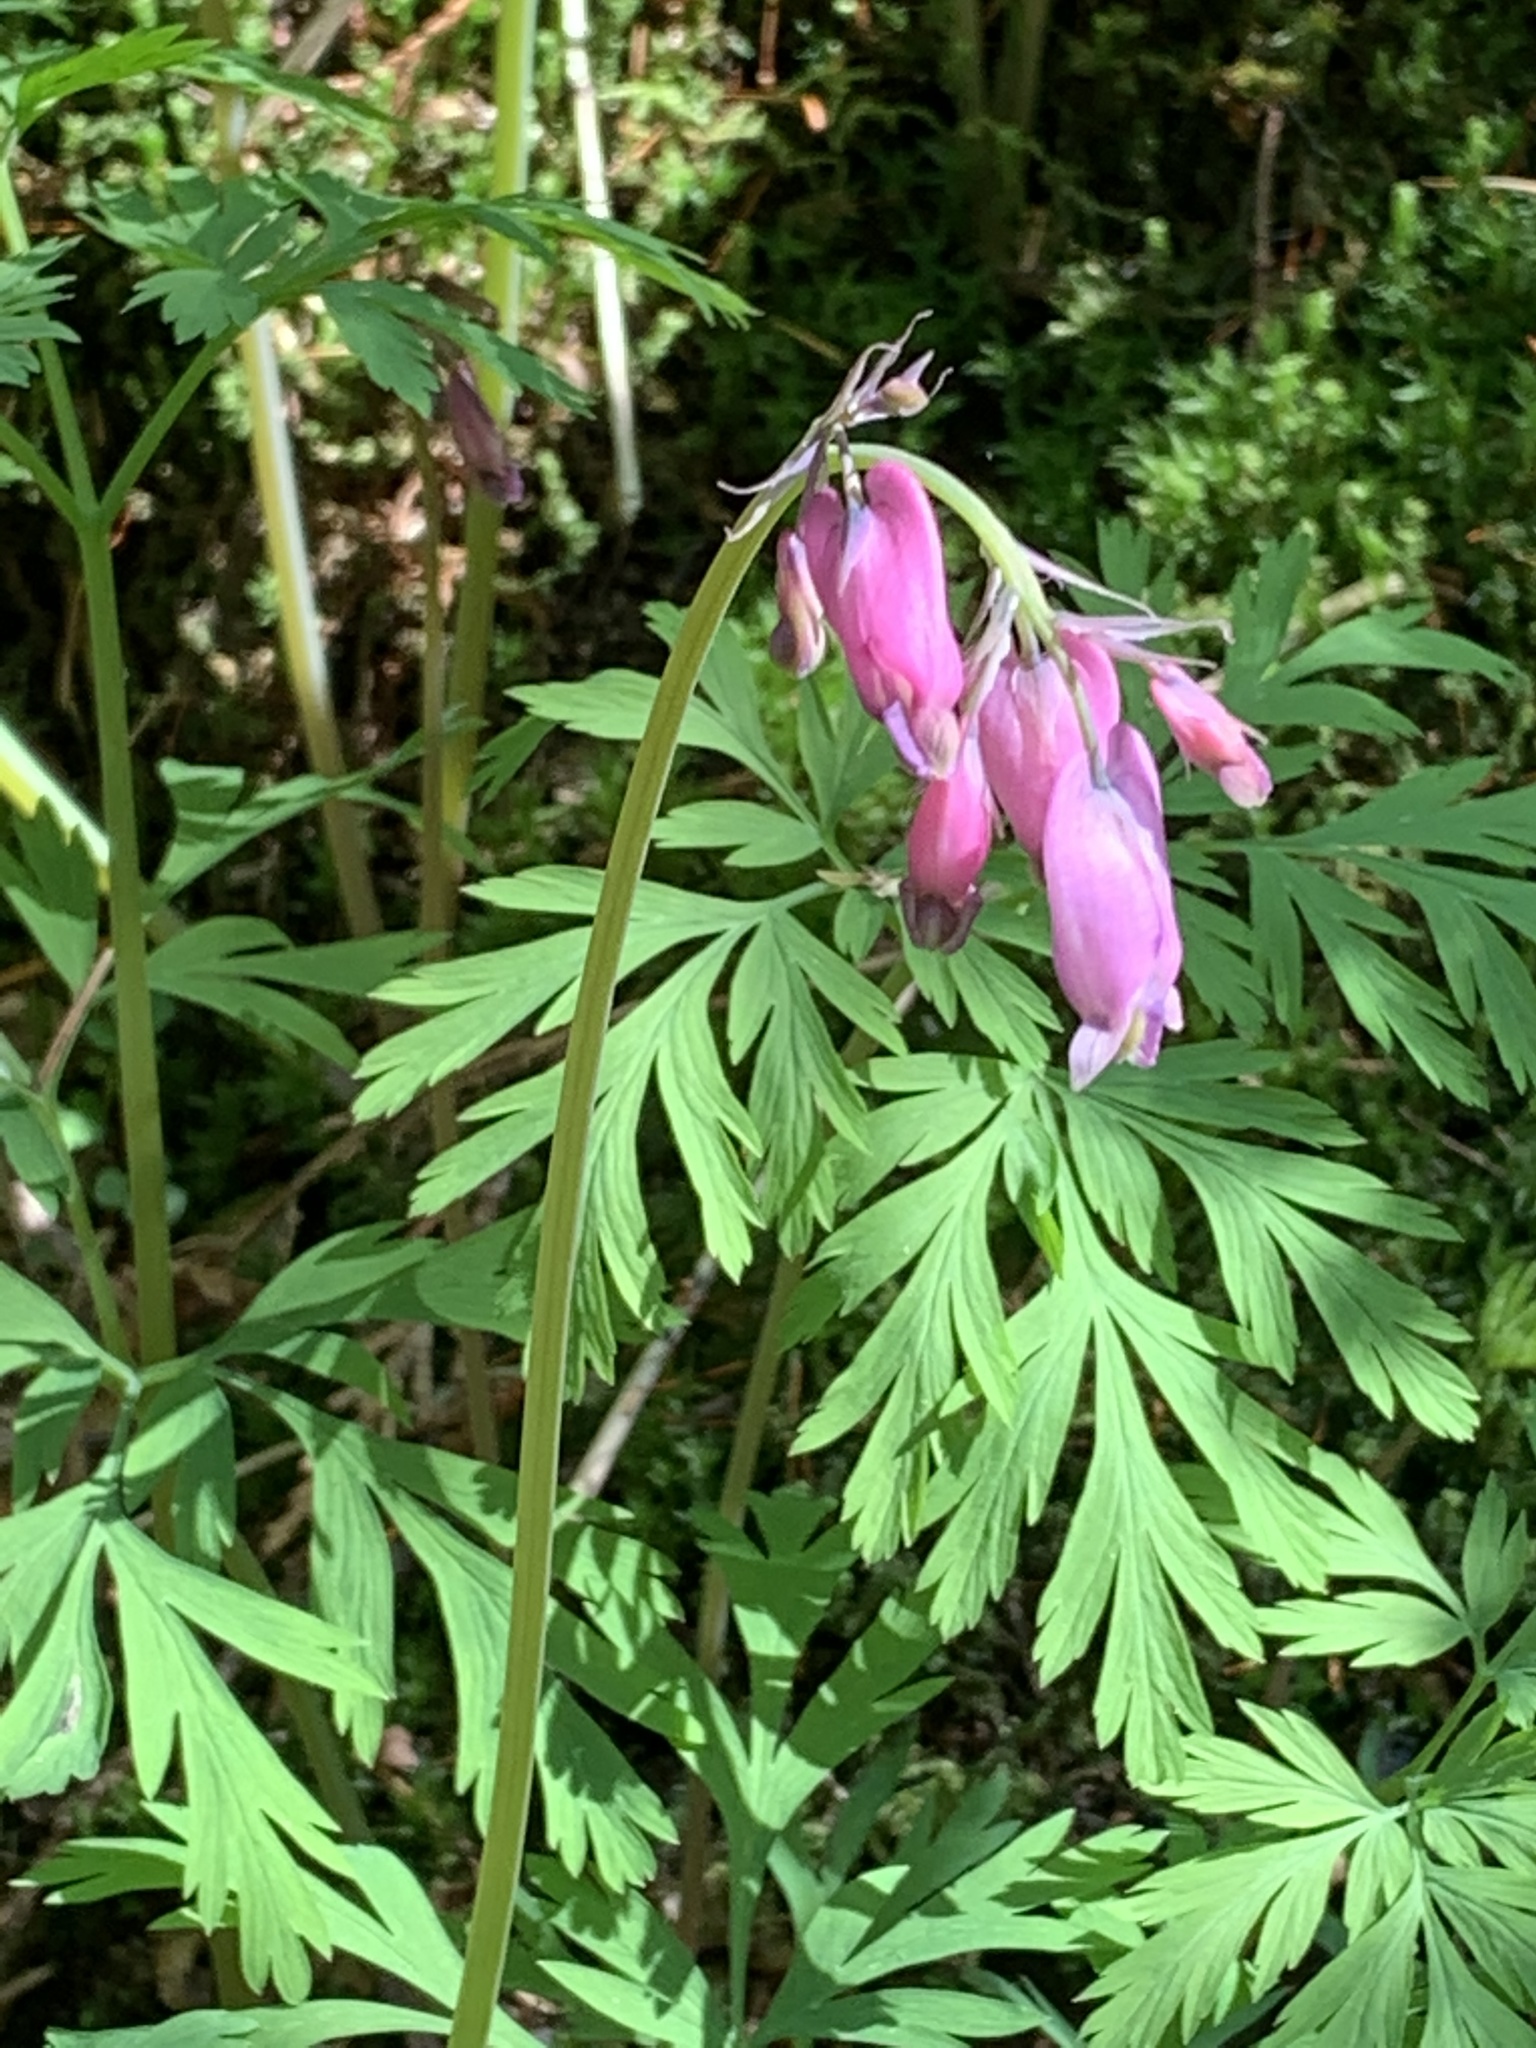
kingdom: Plantae
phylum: Tracheophyta
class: Magnoliopsida
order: Ranunculales
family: Papaveraceae
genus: Dicentra
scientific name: Dicentra formosa
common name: Bleeding-heart
